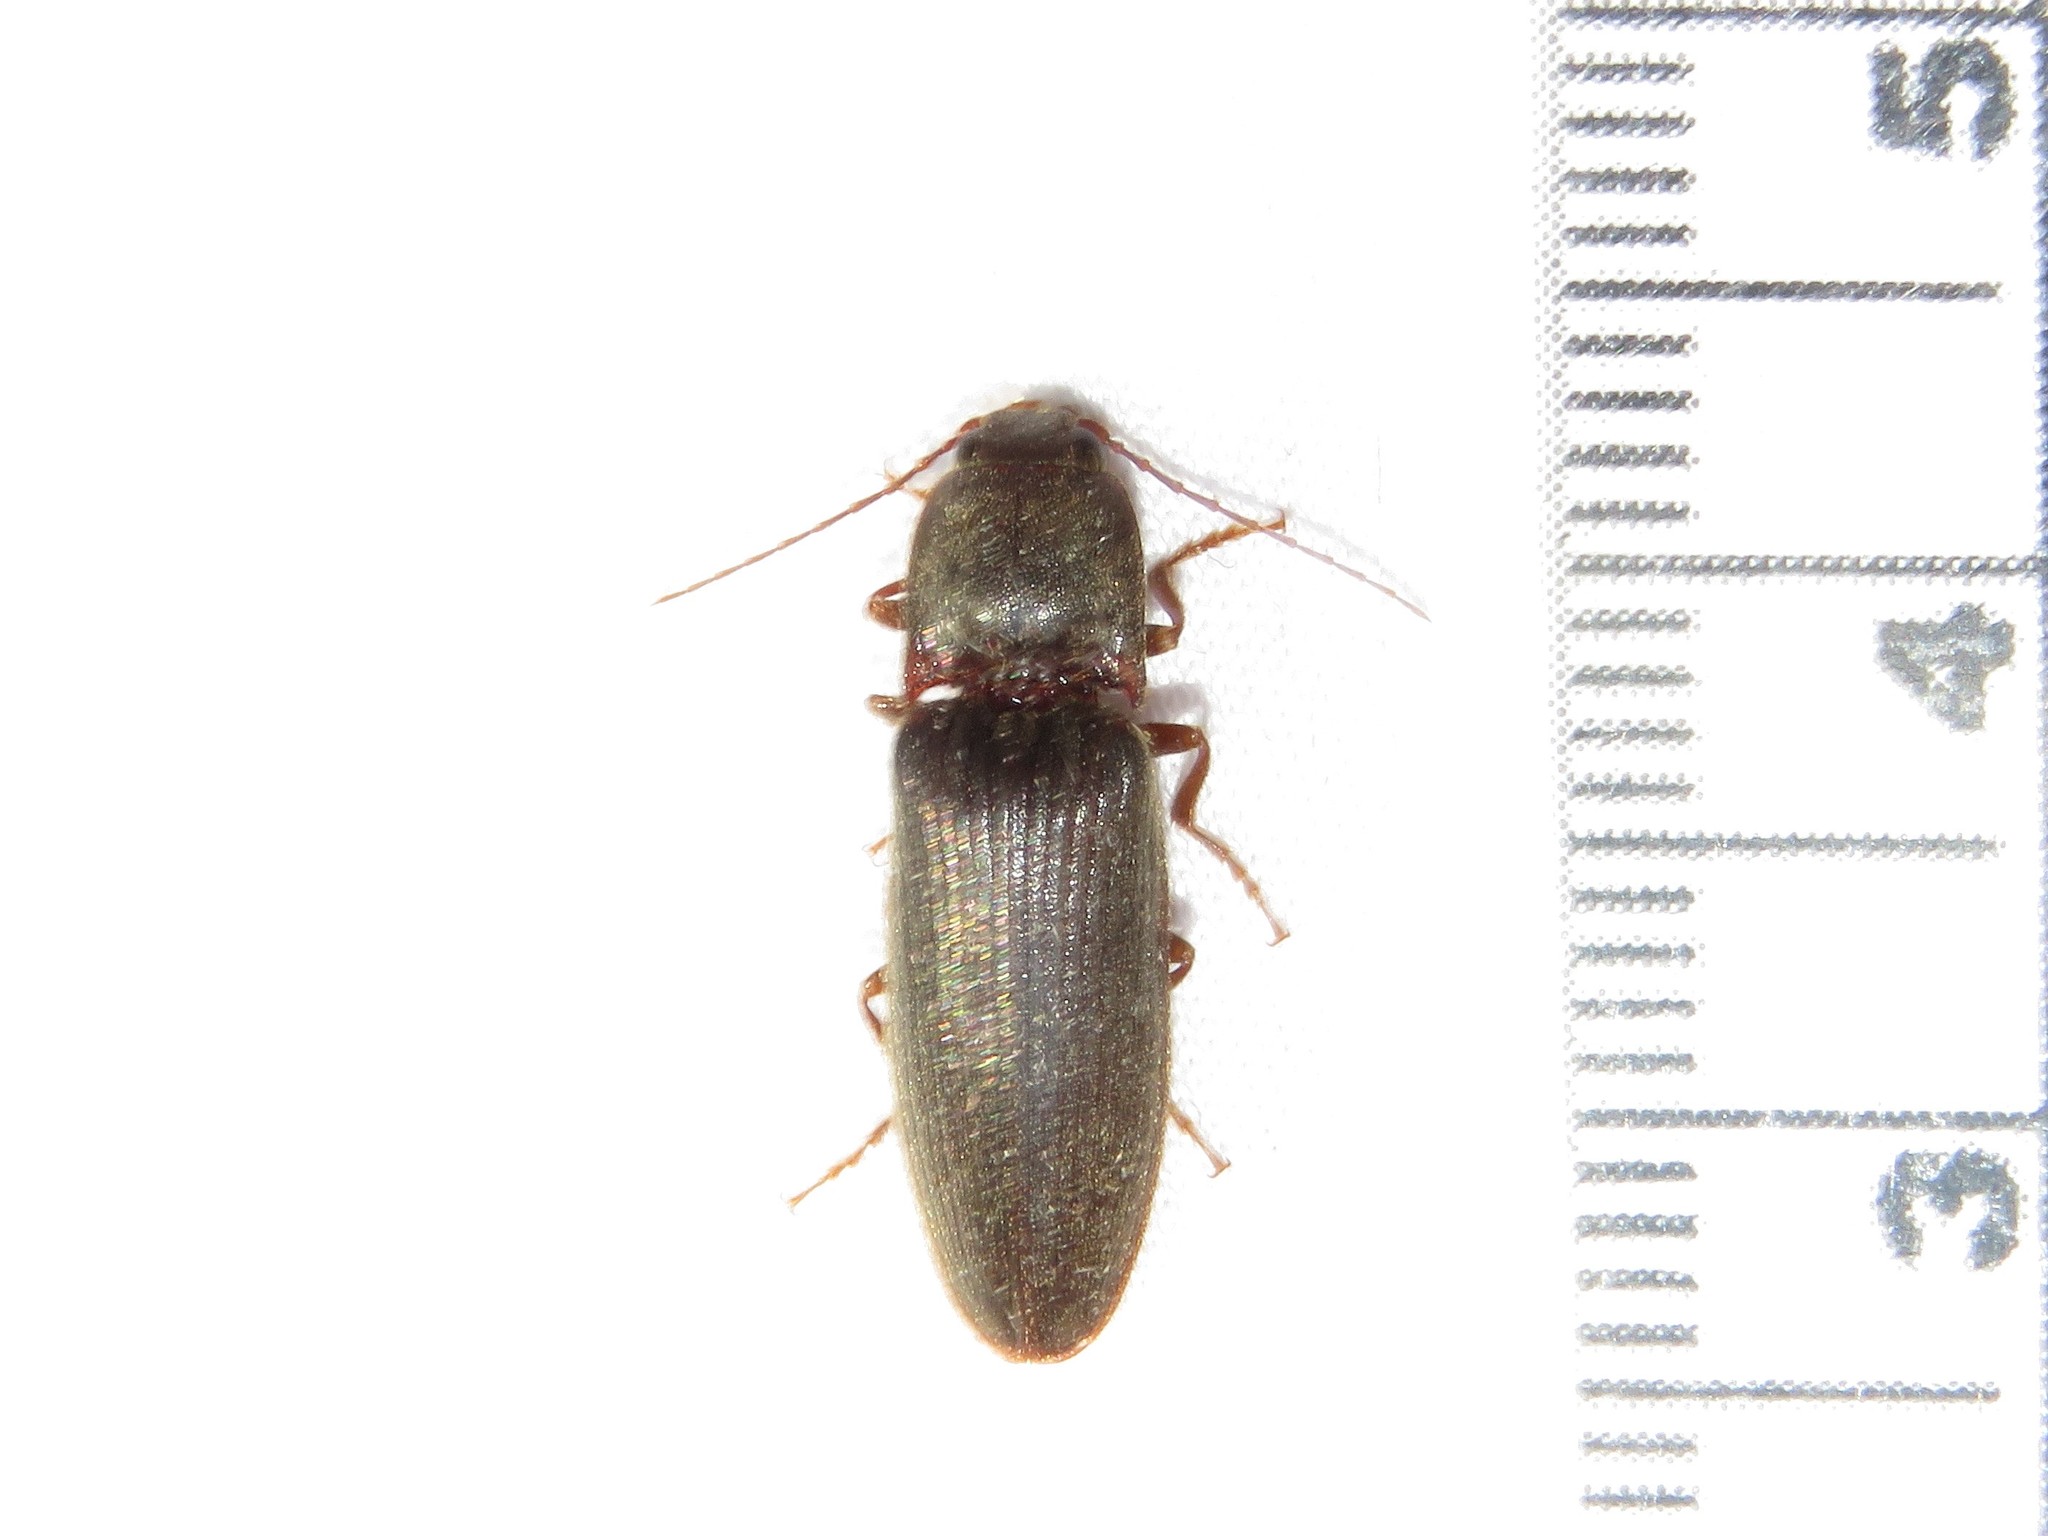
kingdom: Animalia
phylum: Arthropoda
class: Insecta
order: Coleoptera
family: Elateridae
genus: Hemicrepidius
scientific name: Hemicrepidius
